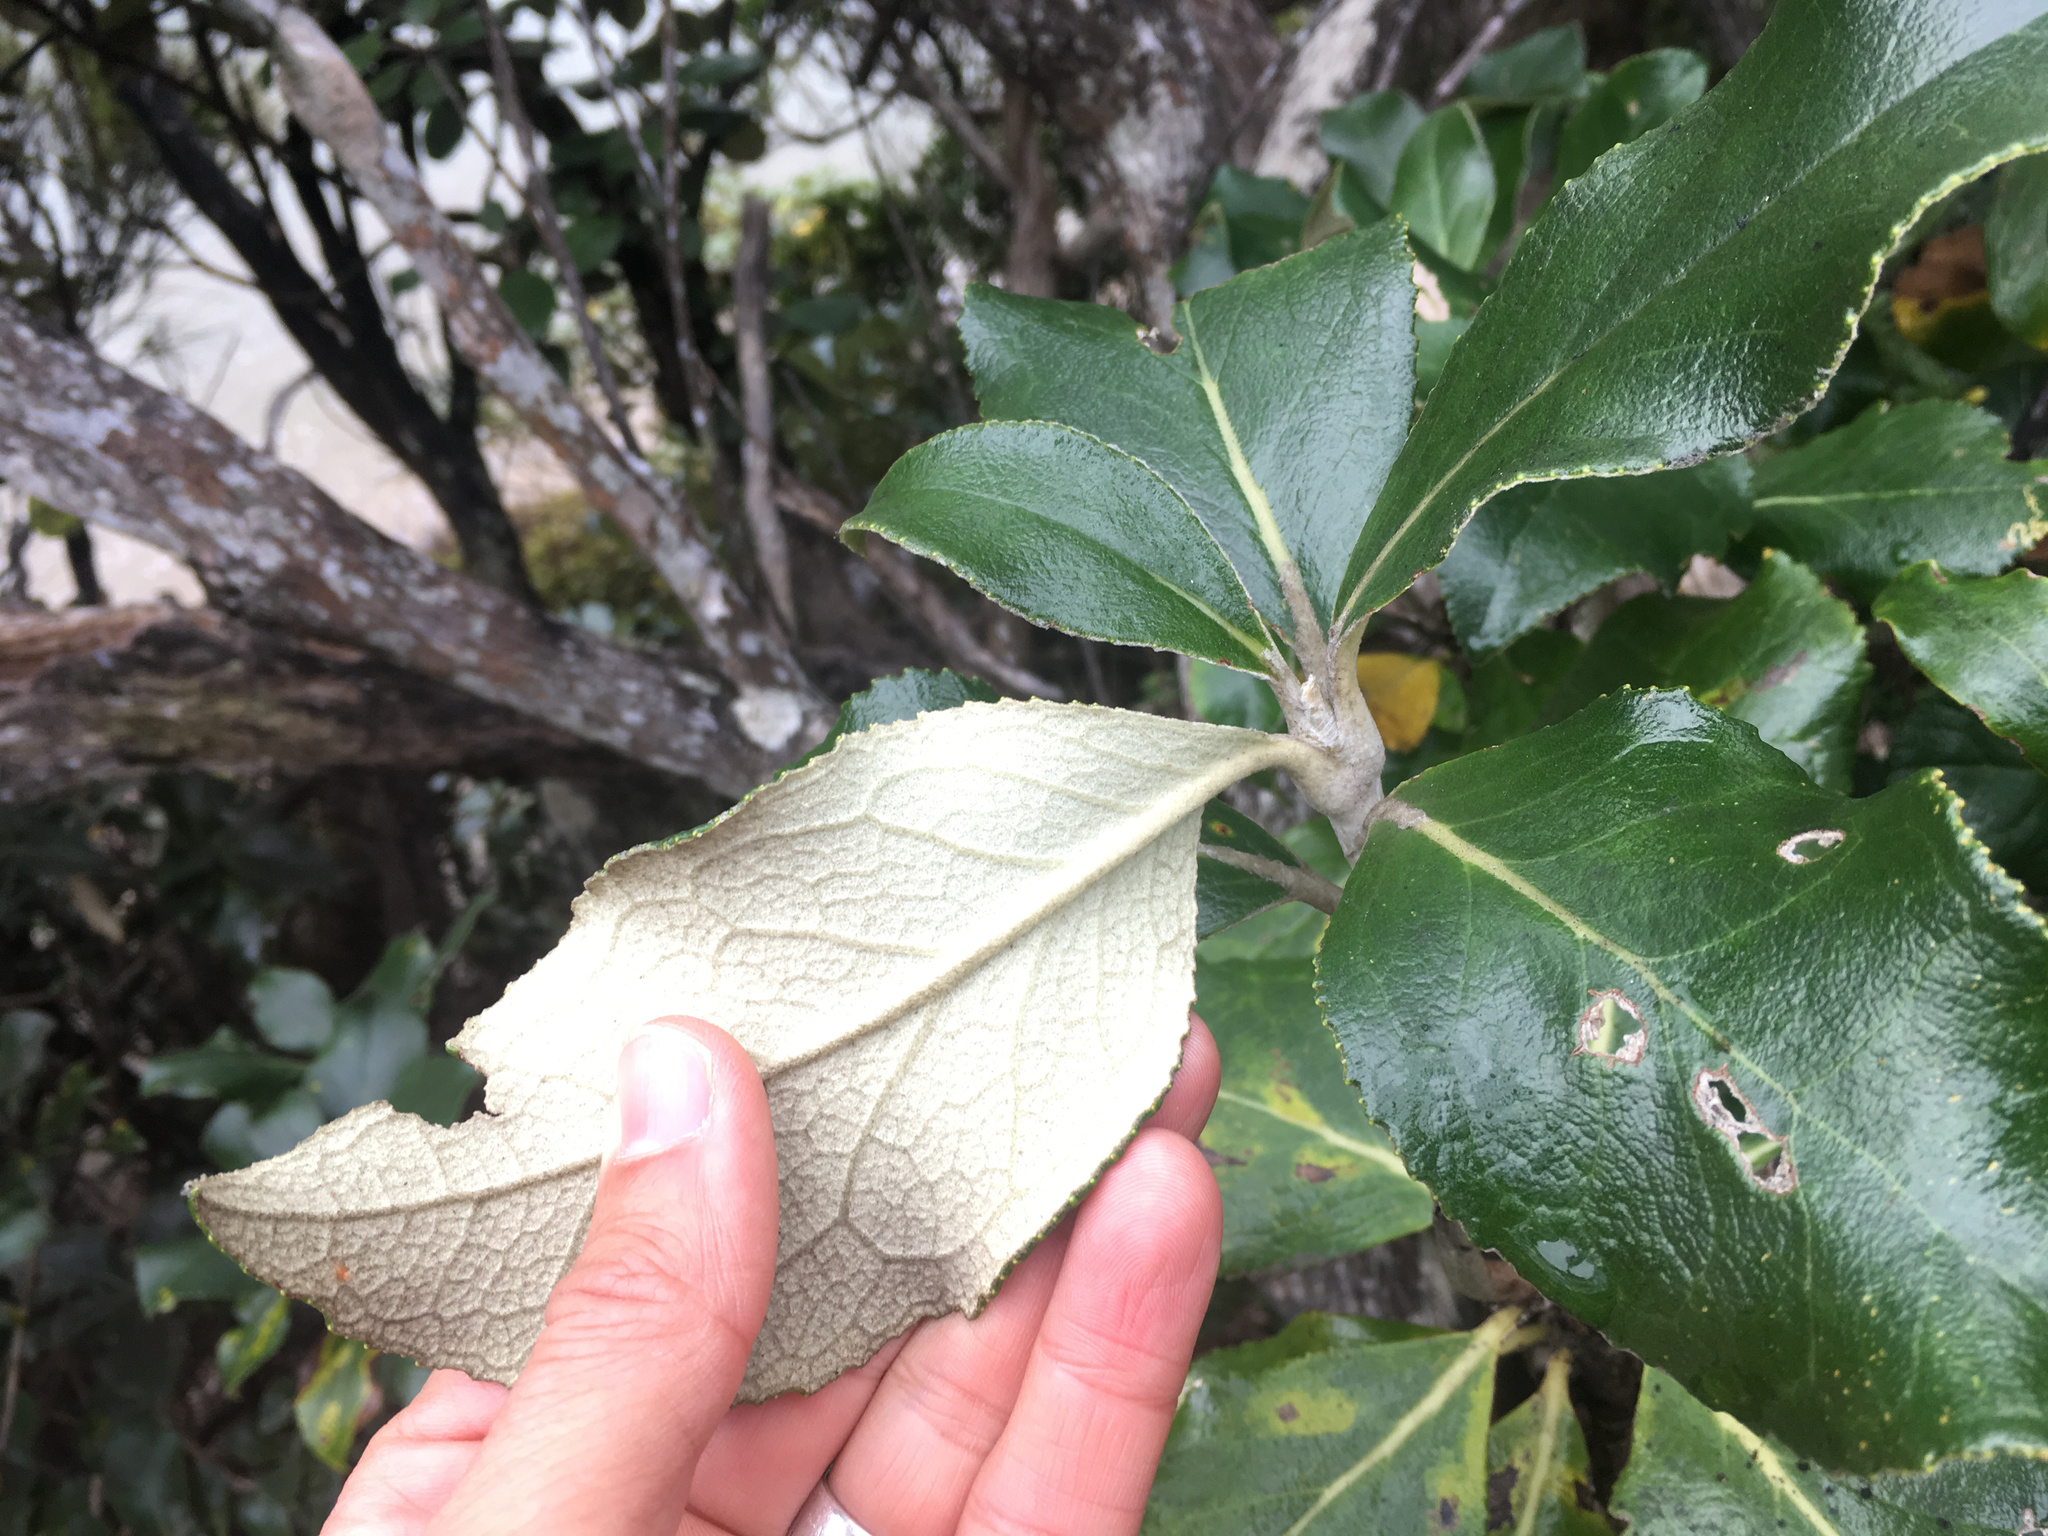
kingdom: Plantae
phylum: Tracheophyta
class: Magnoliopsida
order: Asterales
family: Asteraceae
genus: Macrolearia
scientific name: Macrolearia colensoi
